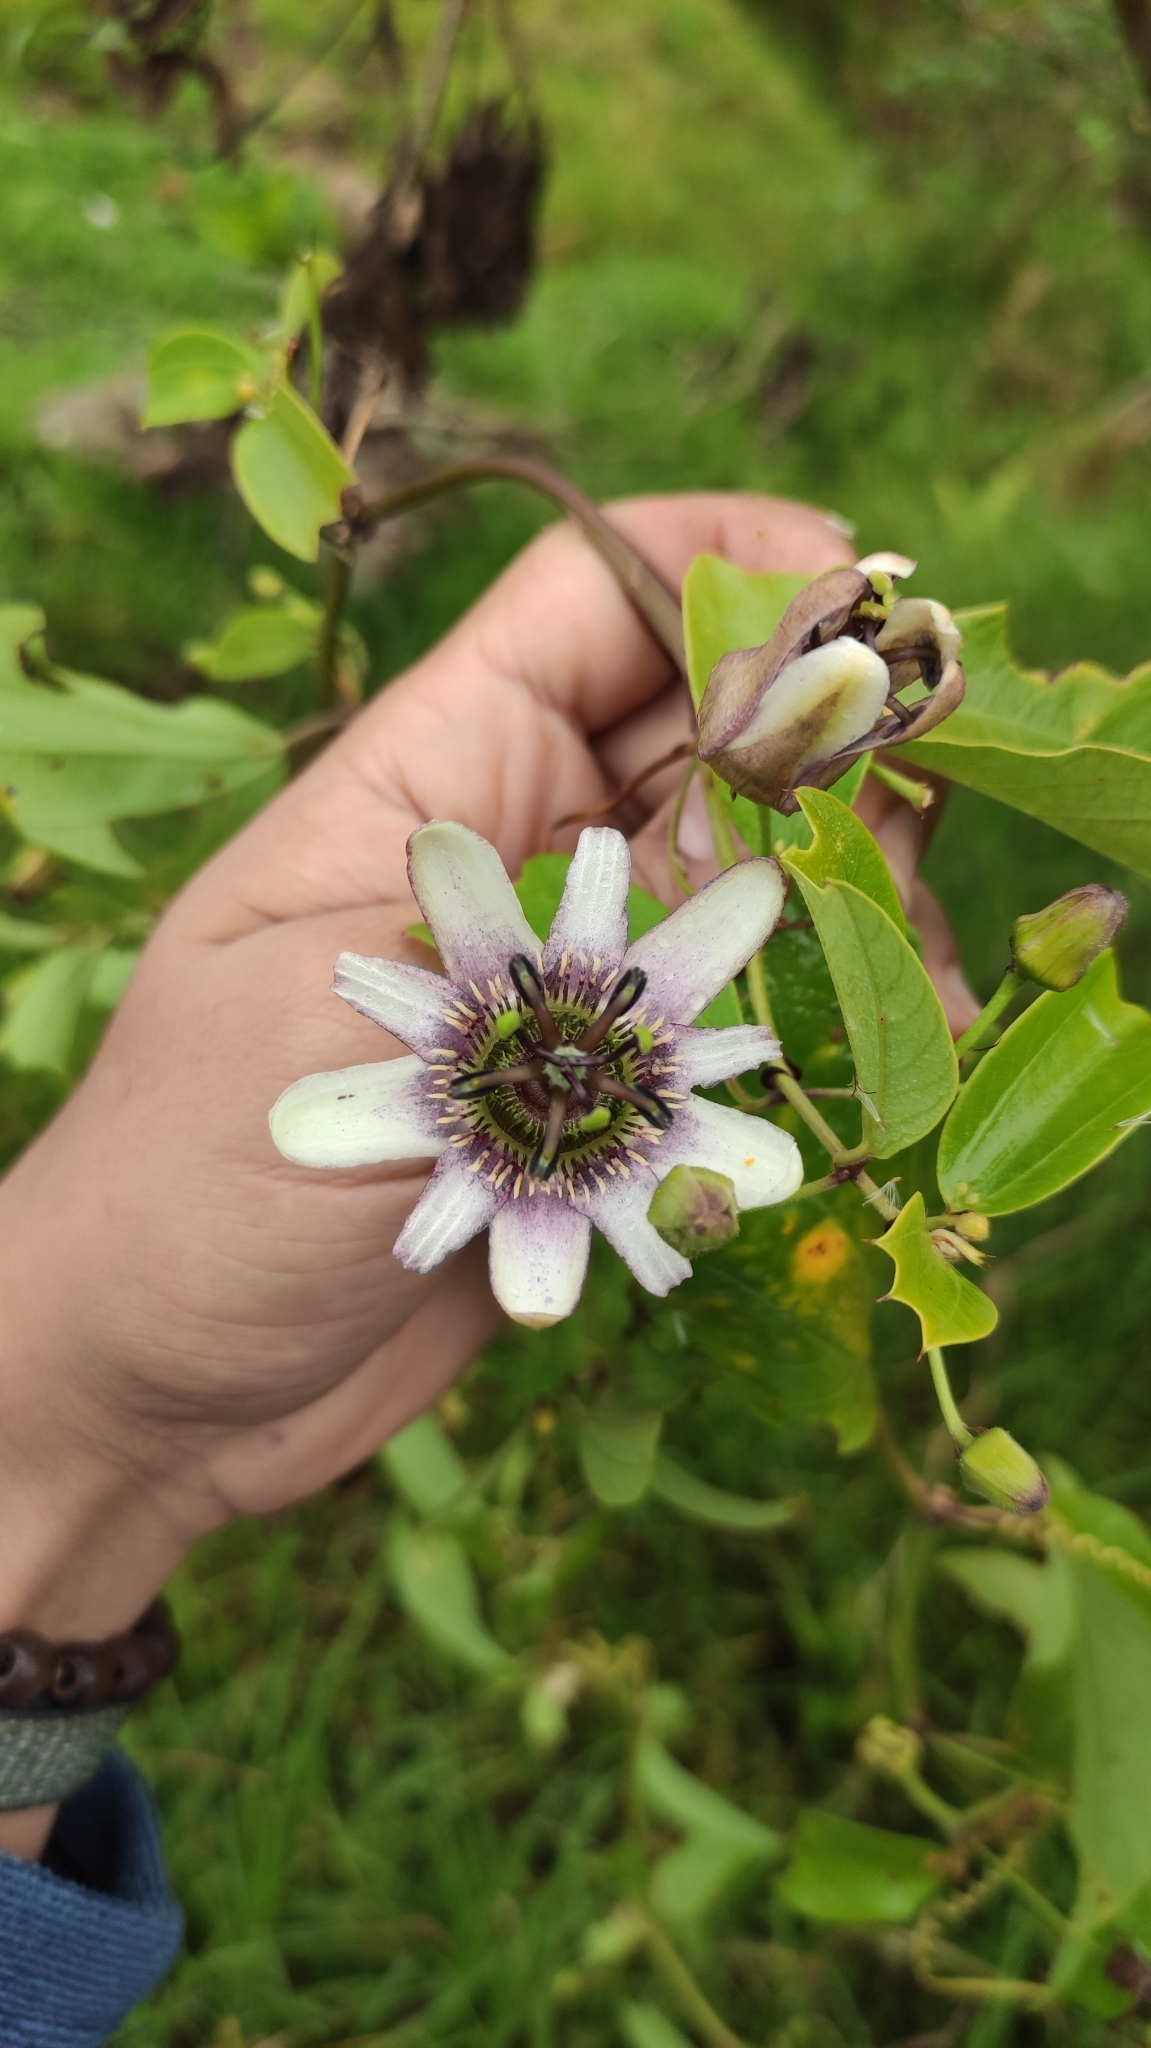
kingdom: Plantae
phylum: Tracheophyta
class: Magnoliopsida
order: Malpighiales
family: Passifloraceae
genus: Passiflora
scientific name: Passiflora alnifolia
